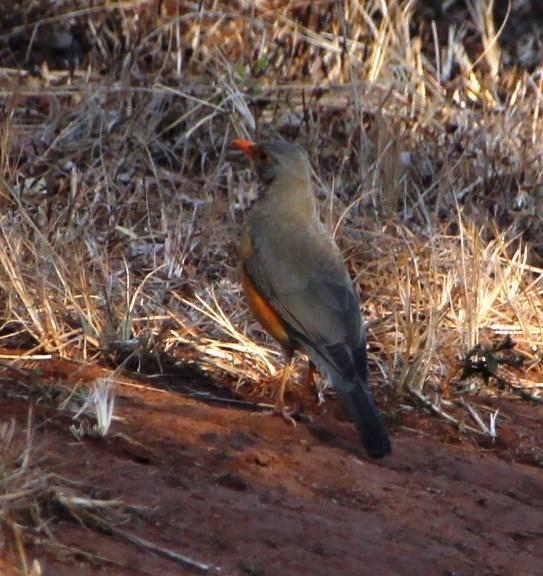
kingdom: Animalia
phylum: Chordata
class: Aves
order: Passeriformes
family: Turdidae
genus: Turdus
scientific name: Turdus libonyana
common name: Kurrichane thrush
